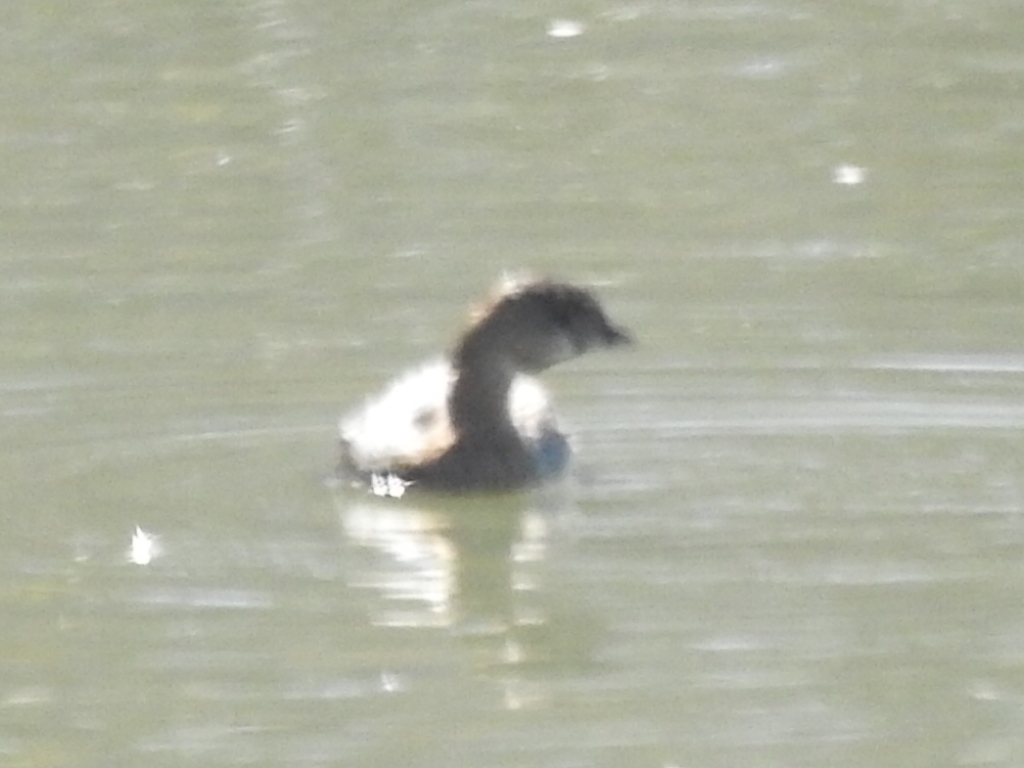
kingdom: Animalia
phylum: Chordata
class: Aves
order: Podicipediformes
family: Podicipedidae
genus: Podilymbus
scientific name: Podilymbus podiceps
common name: Pied-billed grebe
